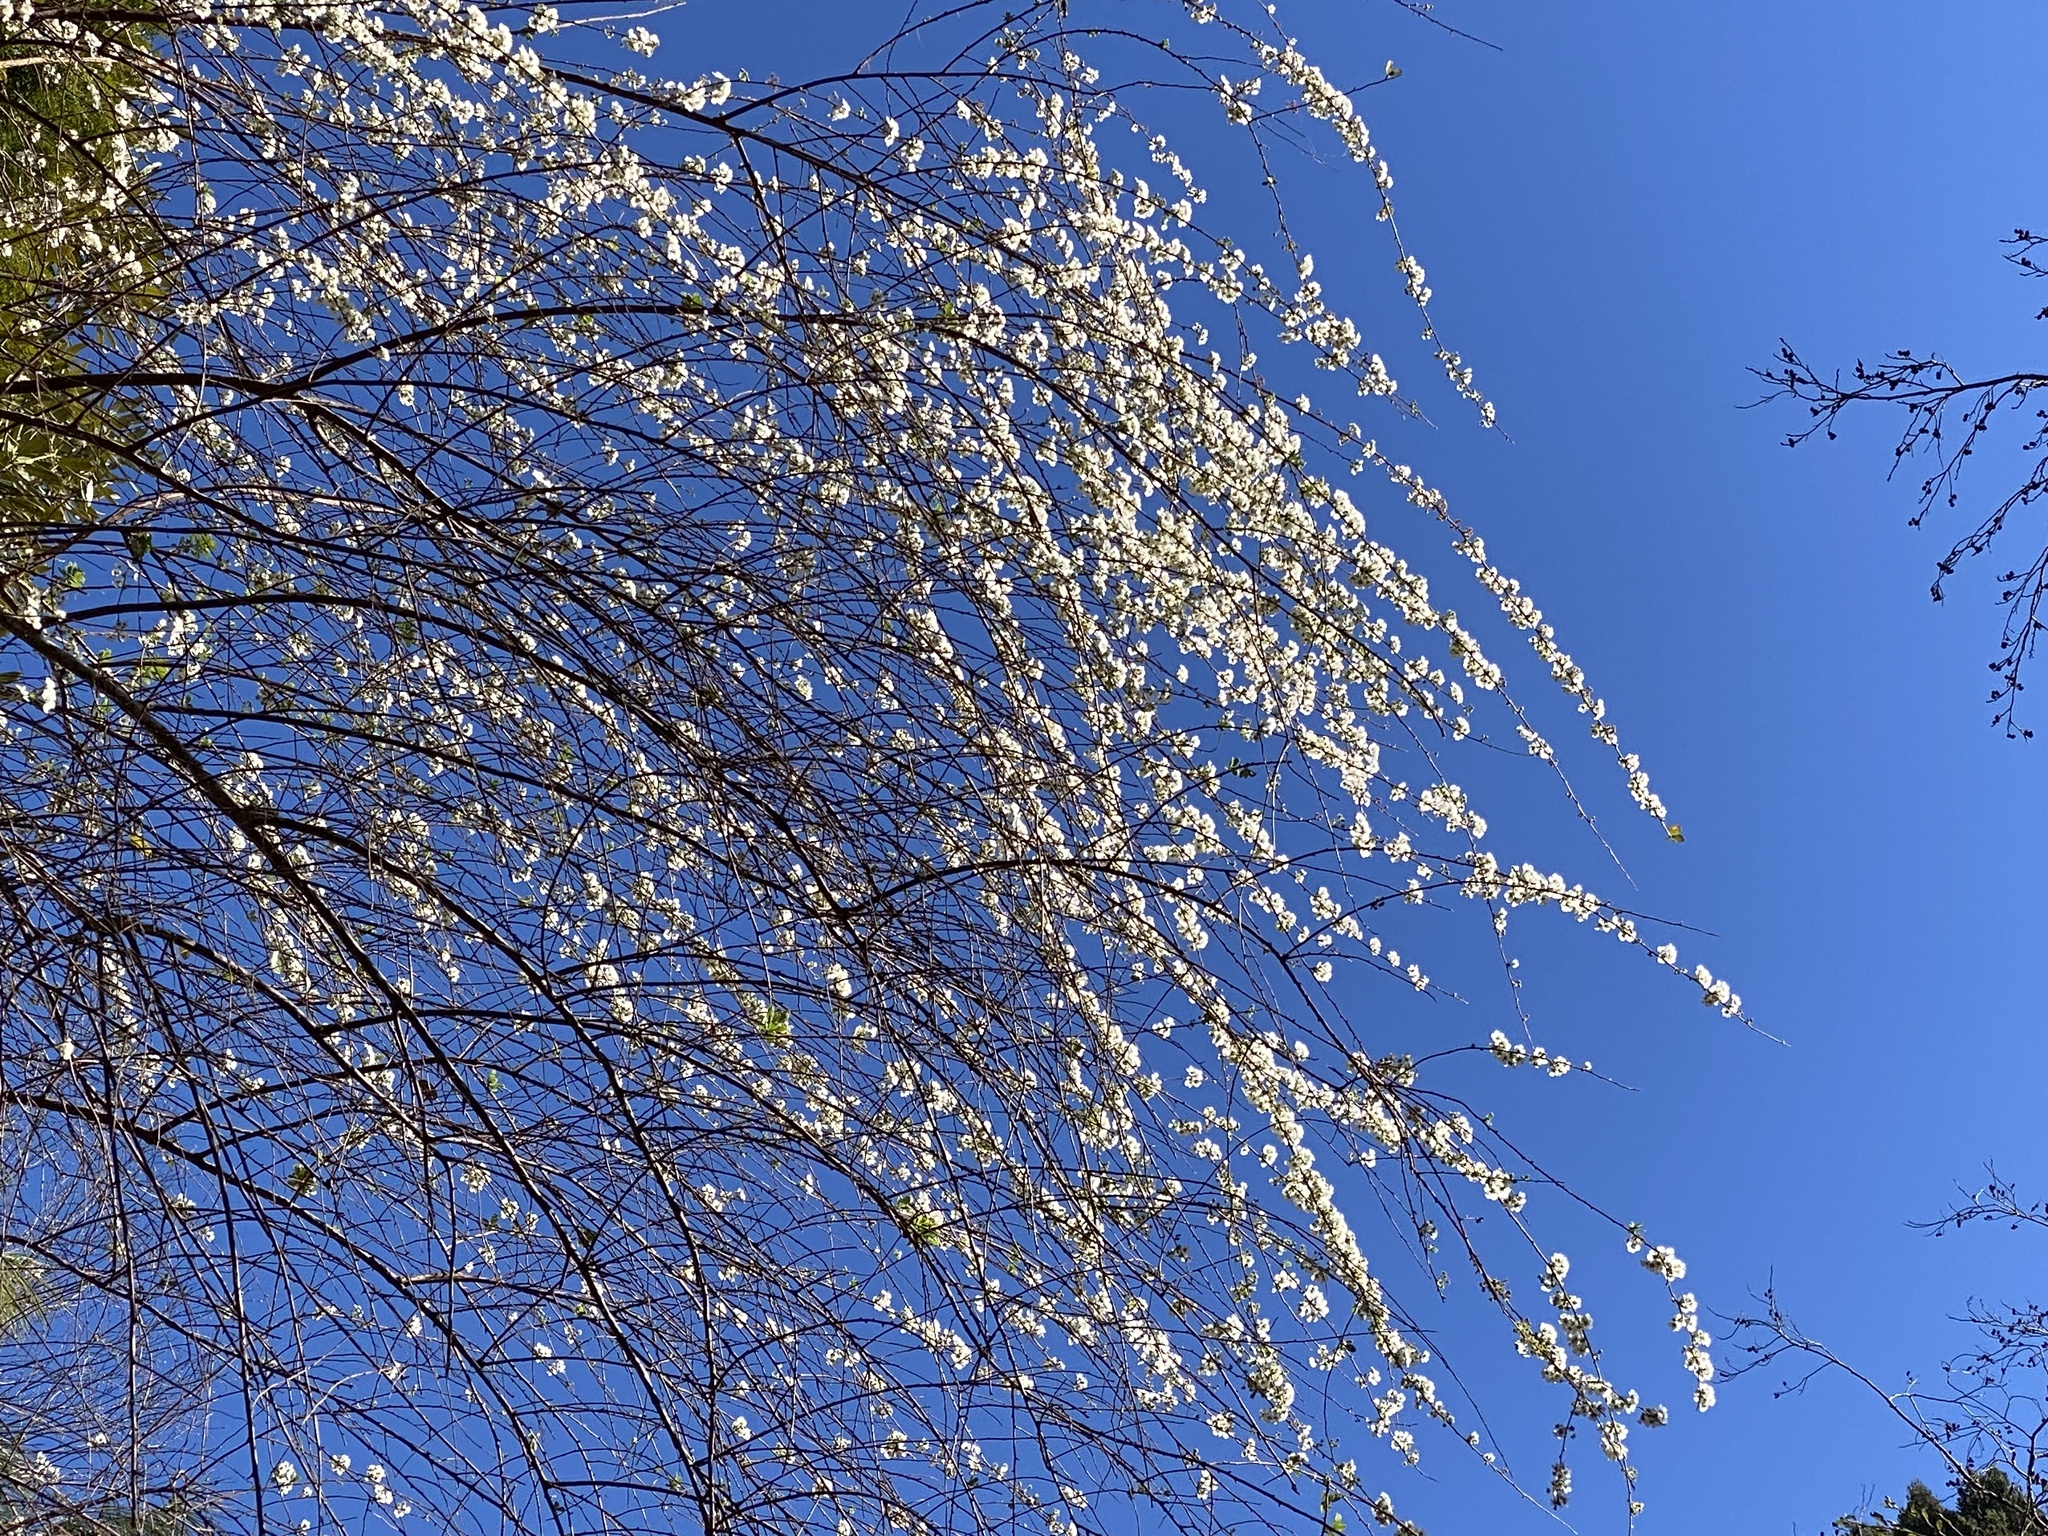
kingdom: Plantae
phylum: Tracheophyta
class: Magnoliopsida
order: Rosales
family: Rosaceae
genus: Spiraea
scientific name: Spiraea prunifolia
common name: Bridal-wreath spiraea
